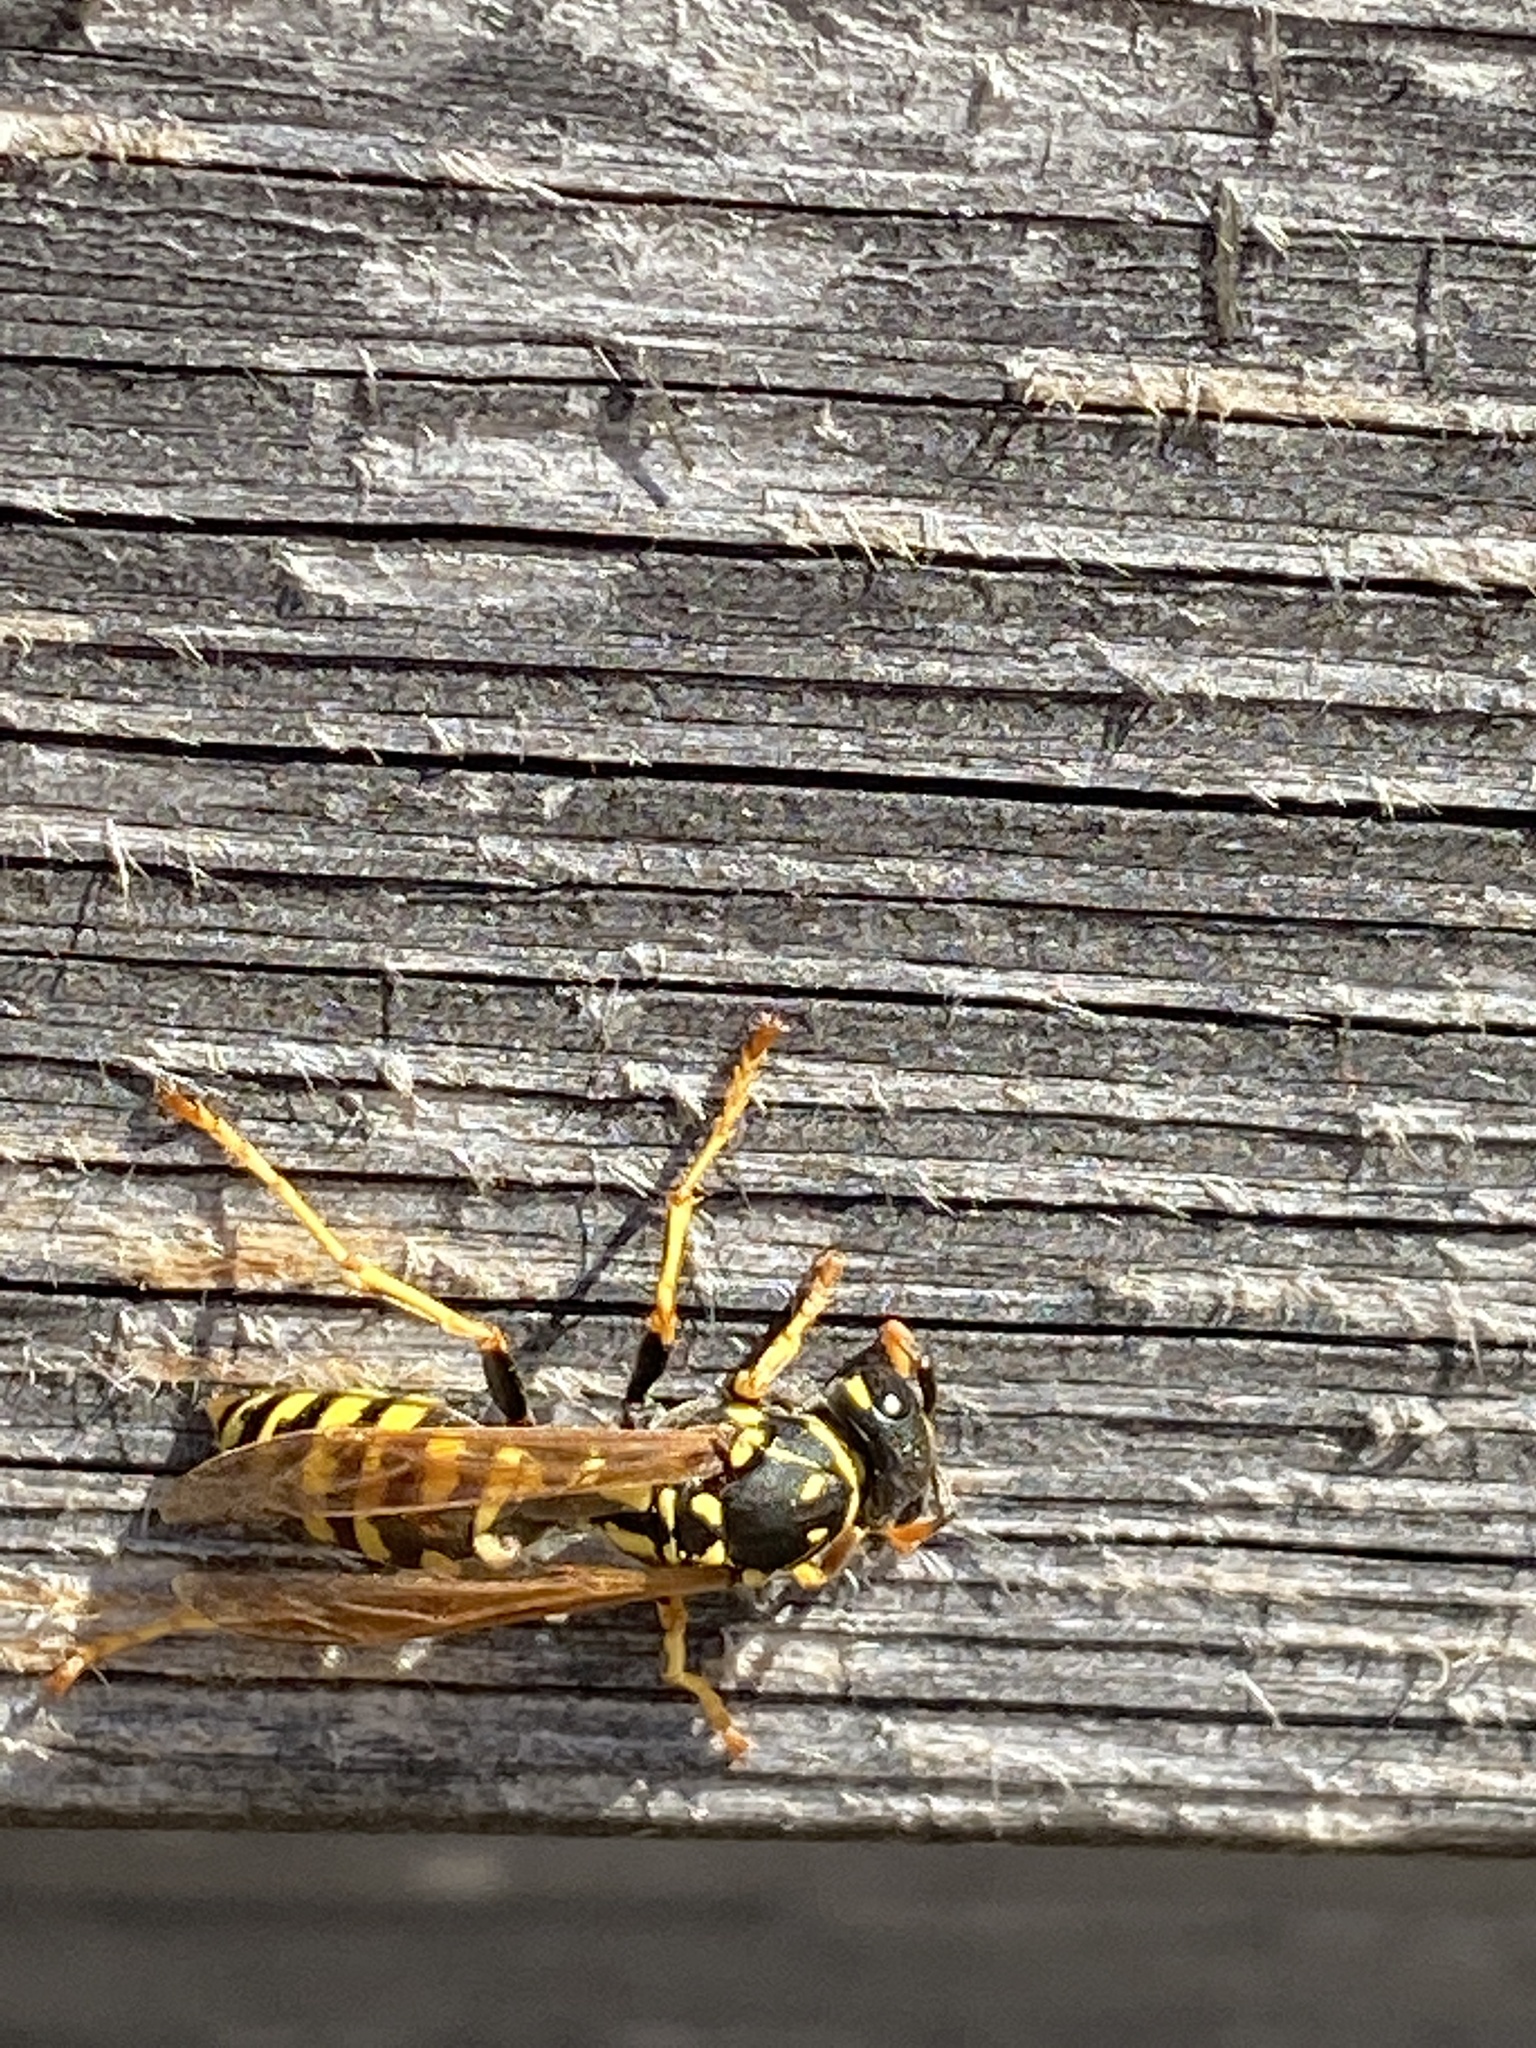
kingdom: Animalia
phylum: Arthropoda
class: Insecta
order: Hymenoptera
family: Eumenidae
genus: Polistes
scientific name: Polistes dominula
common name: Paper wasp
